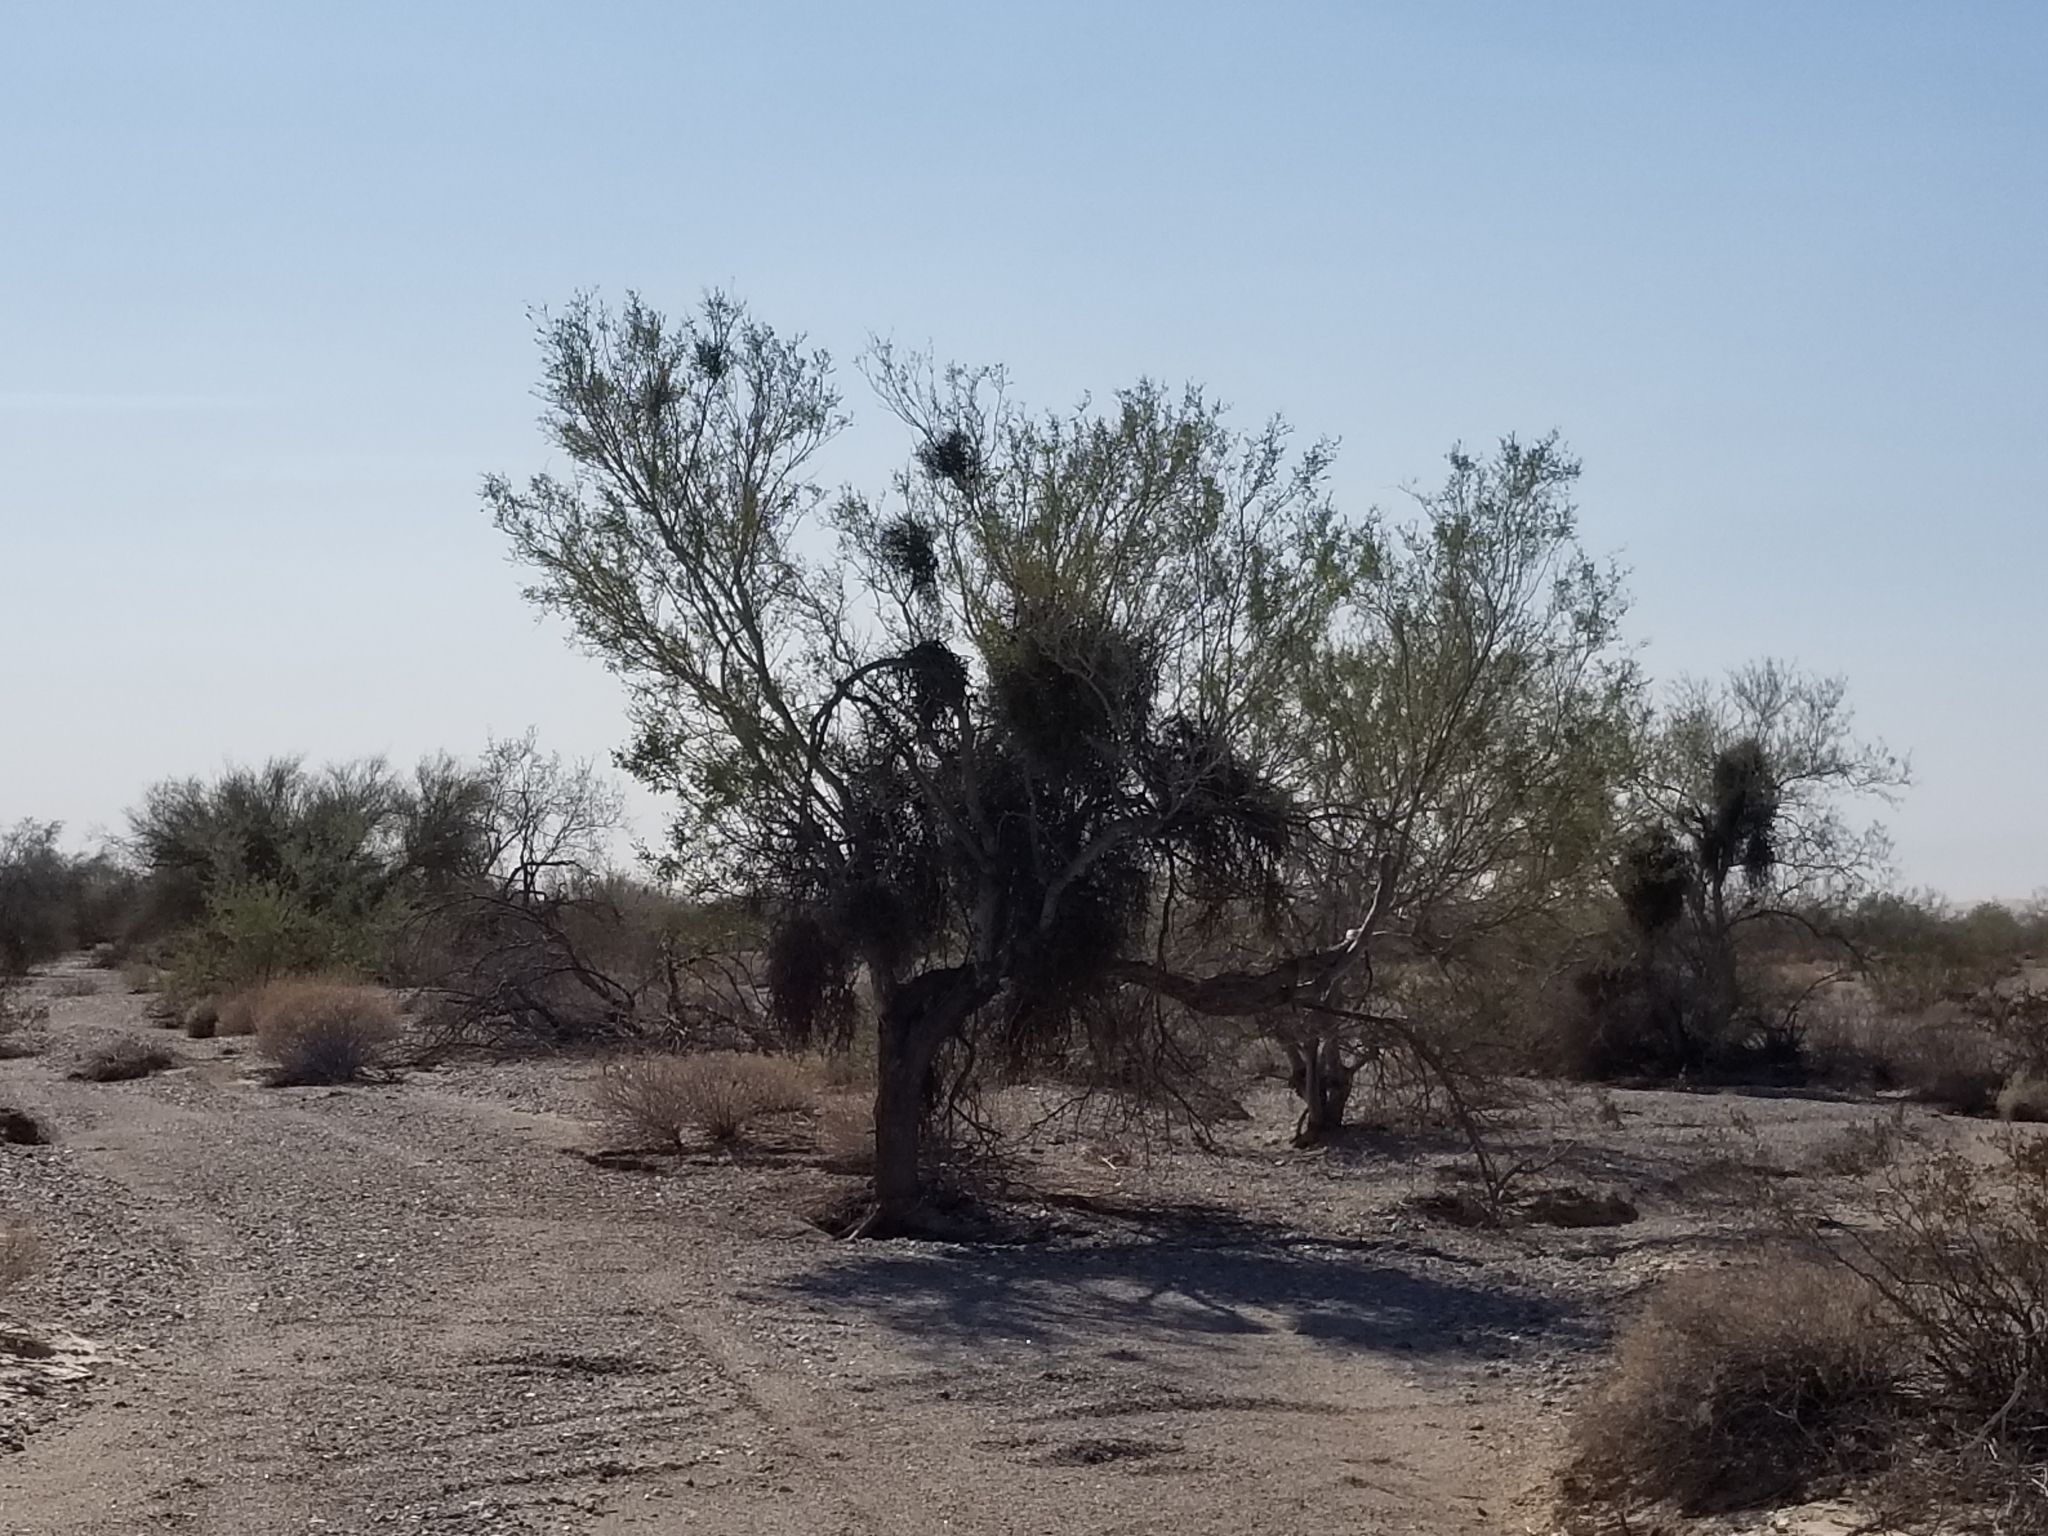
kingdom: Plantae
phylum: Tracheophyta
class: Magnoliopsida
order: Santalales
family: Viscaceae
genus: Phoradendron
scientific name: Phoradendron californicum
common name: Acacia mistletoe
